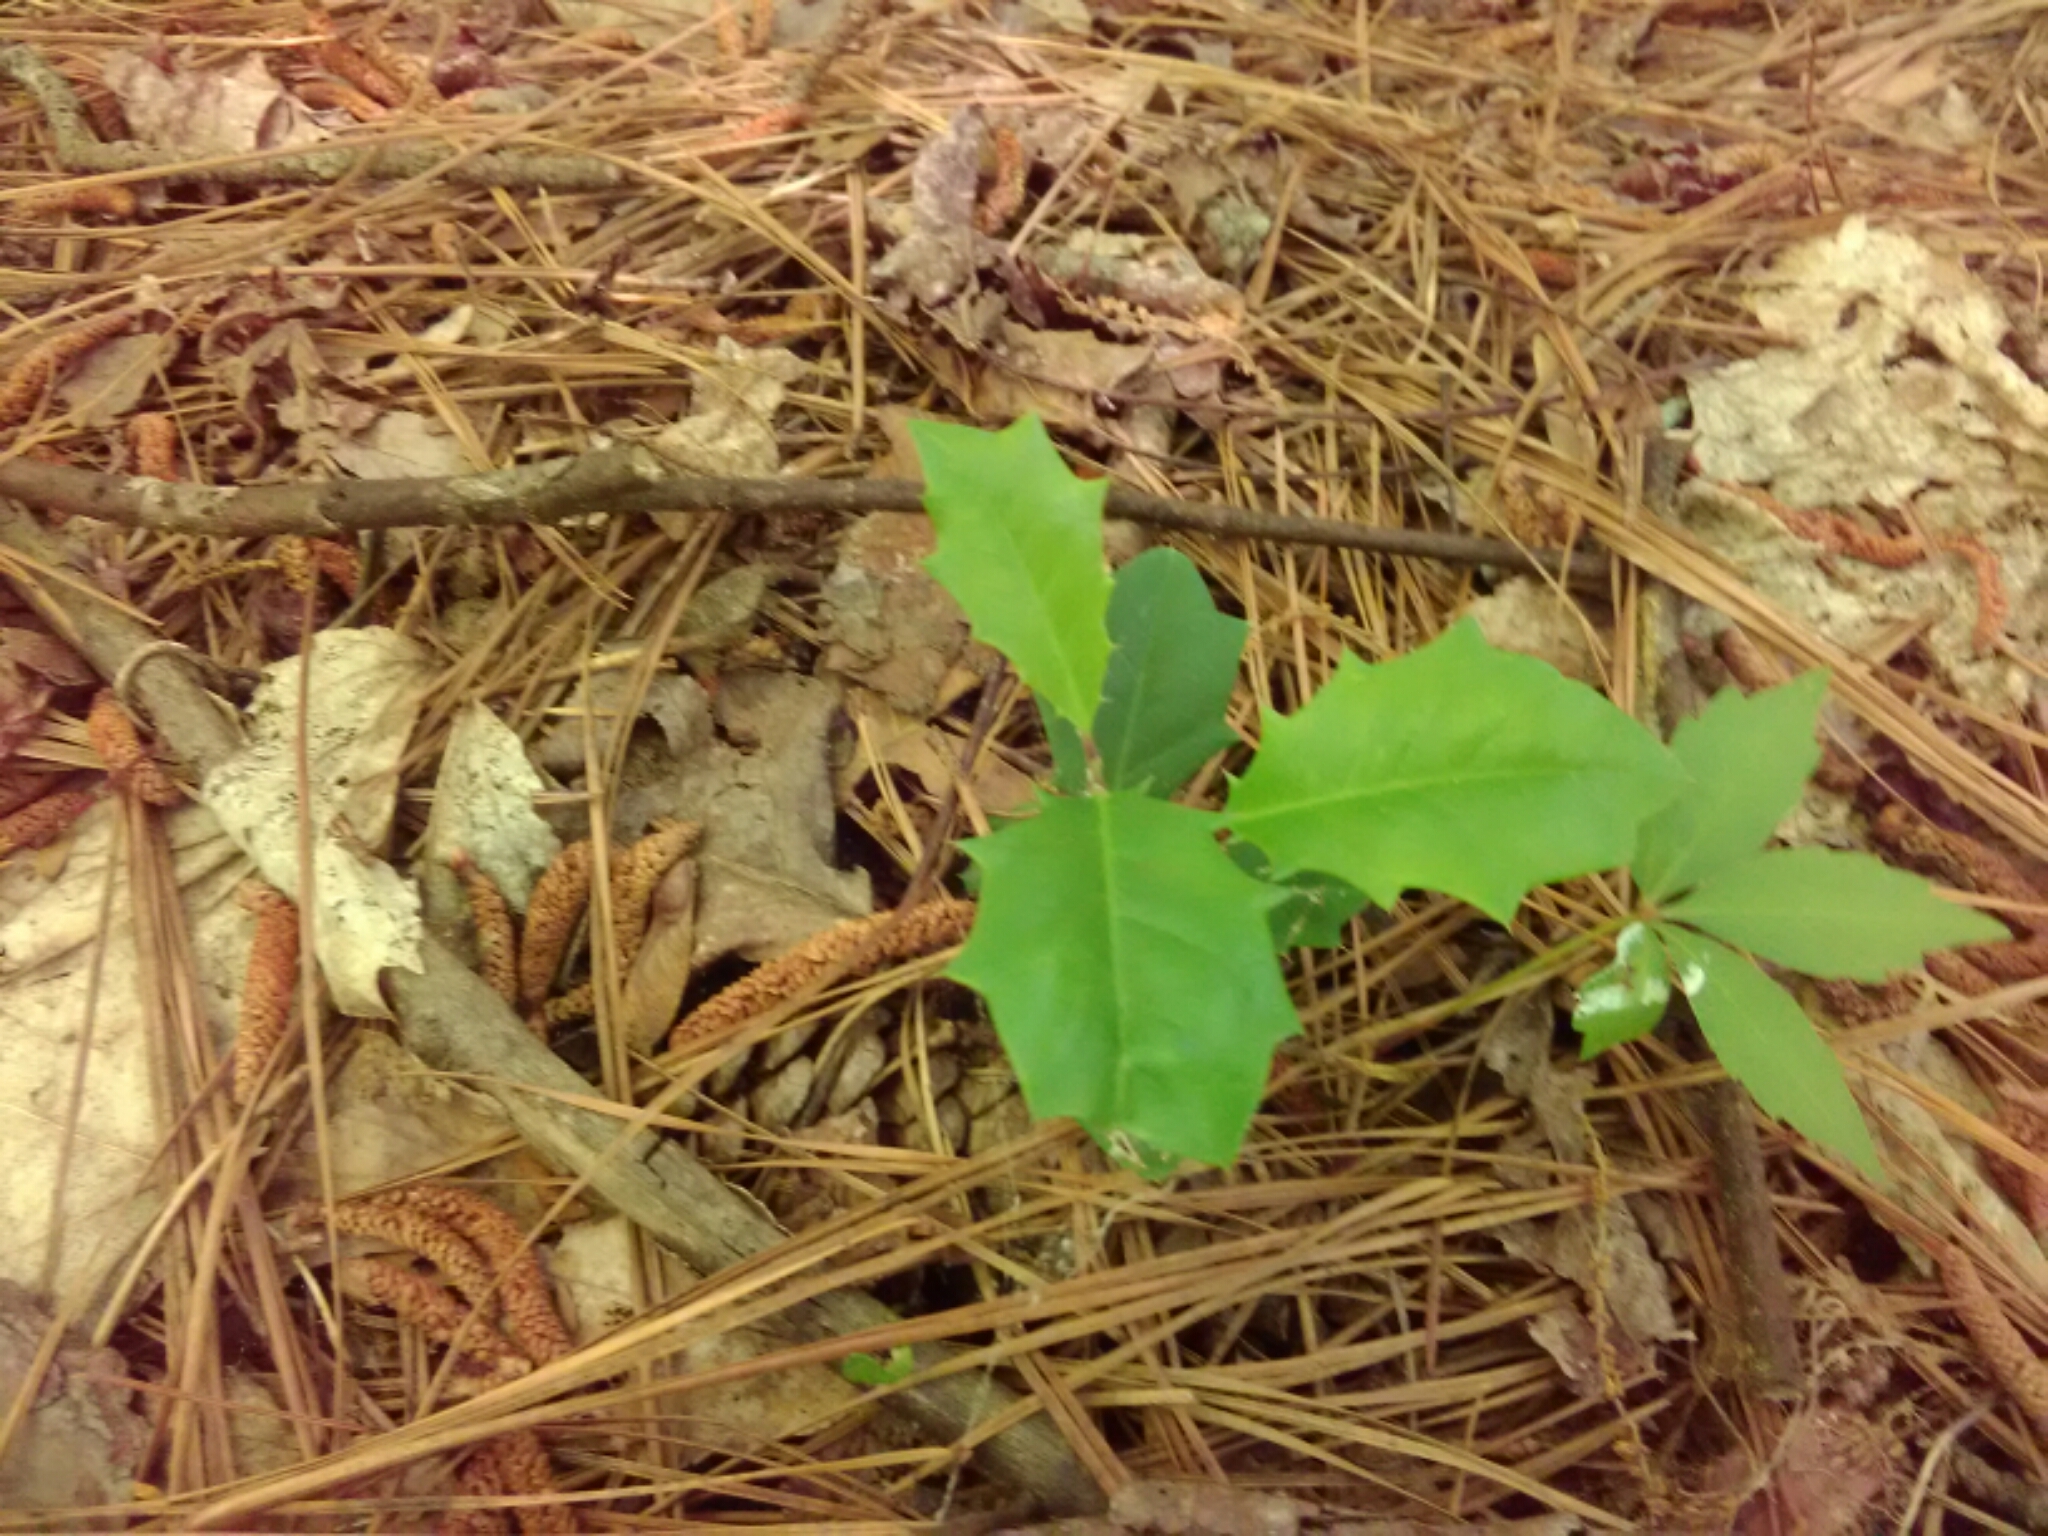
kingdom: Plantae
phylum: Tracheophyta
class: Magnoliopsida
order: Aquifoliales
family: Aquifoliaceae
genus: Ilex
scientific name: Ilex opaca
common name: American holly
